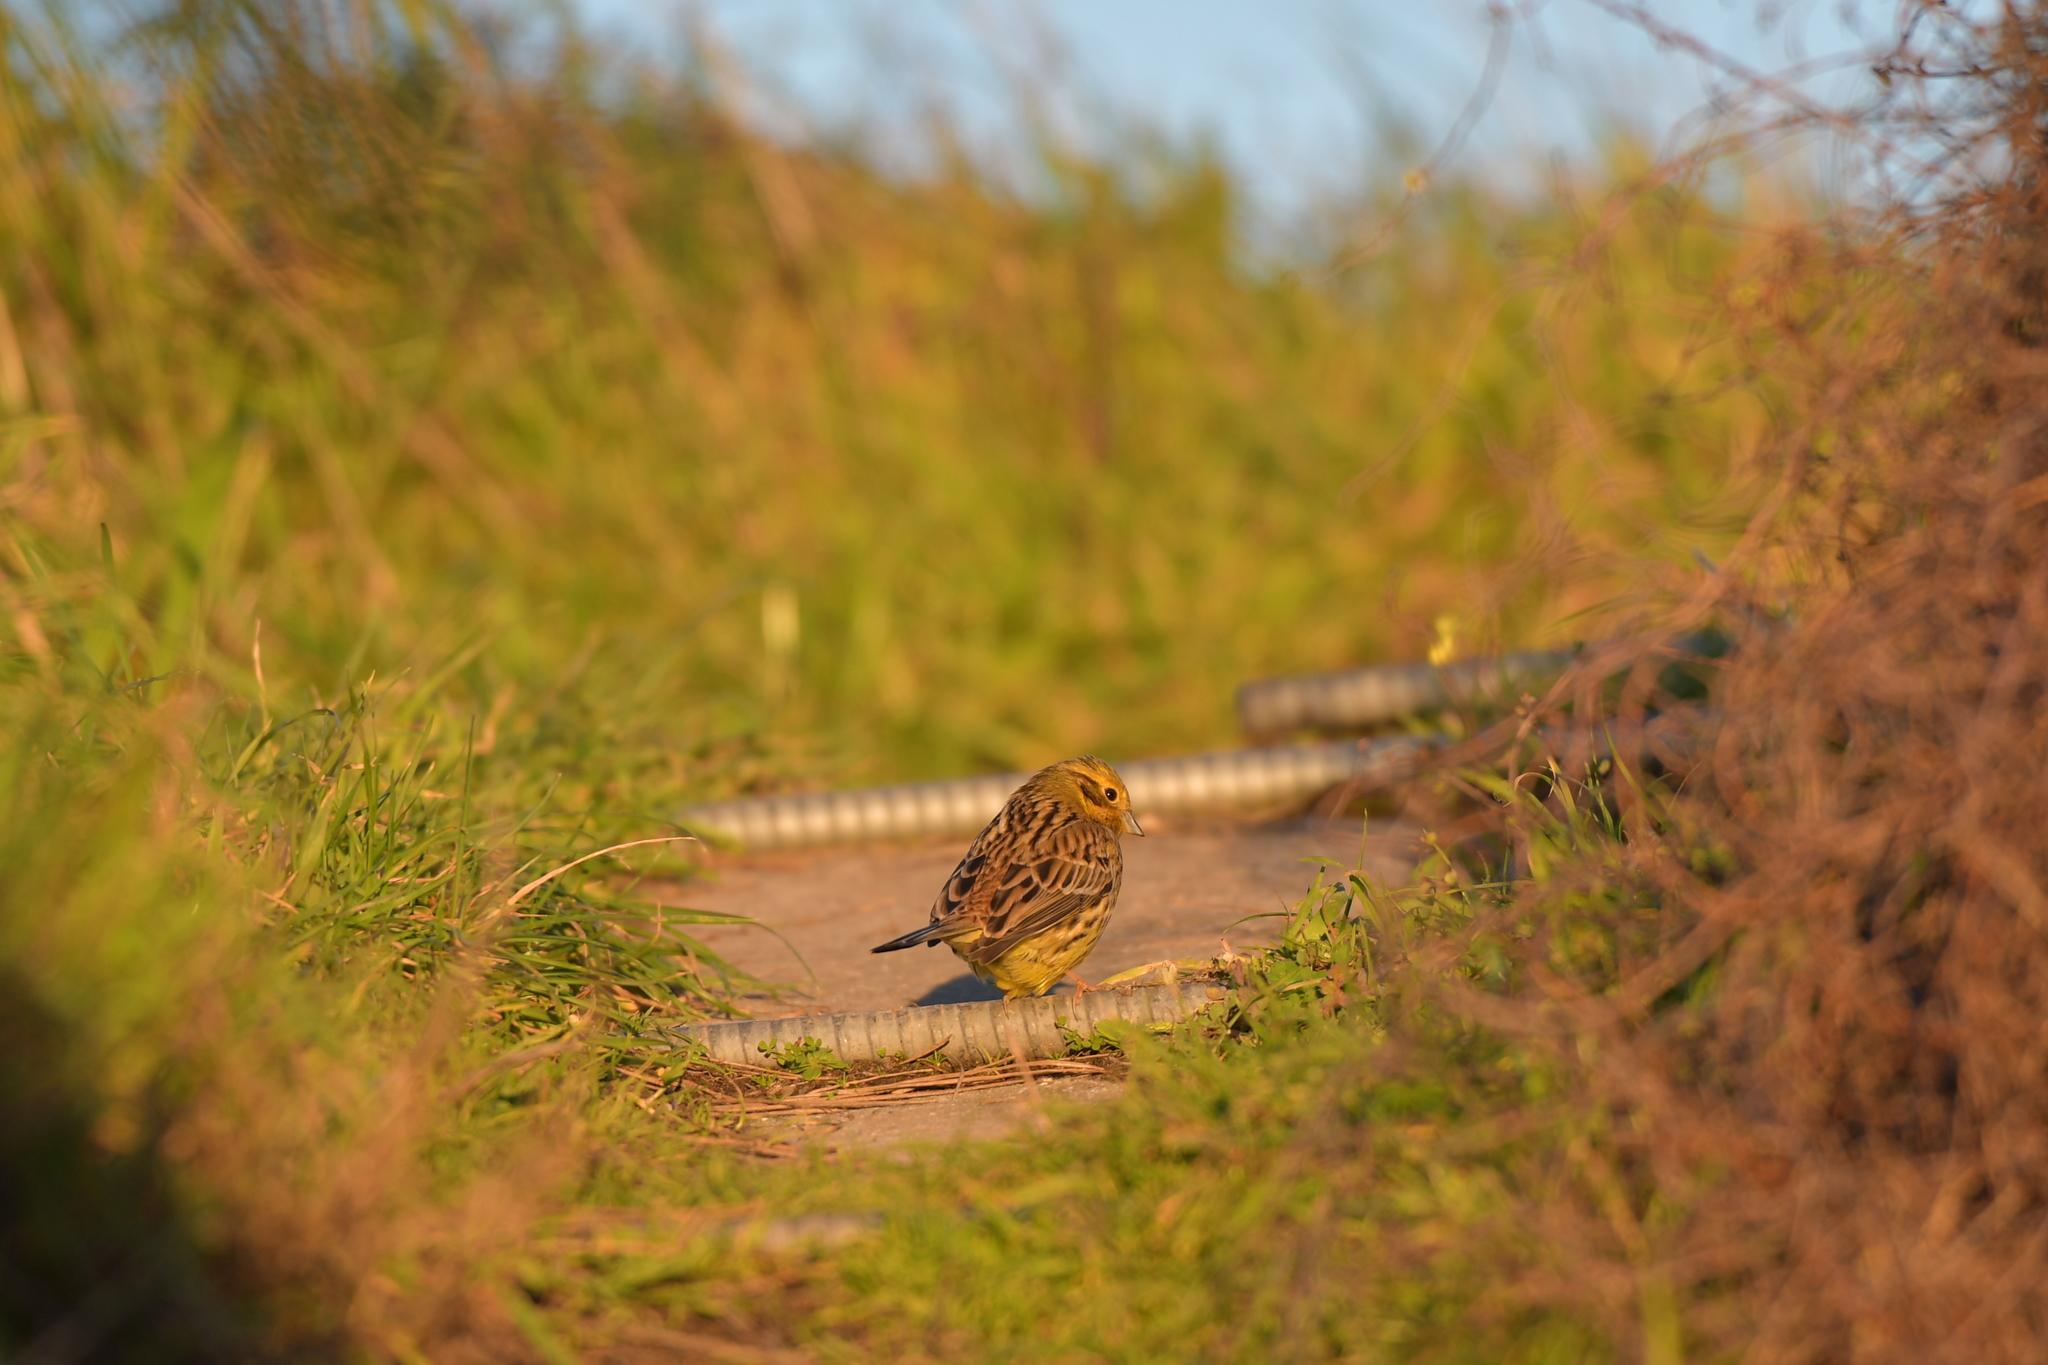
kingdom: Animalia
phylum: Chordata
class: Aves
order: Passeriformes
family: Emberizidae
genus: Emberiza
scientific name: Emberiza citrinella
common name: Yellowhammer
